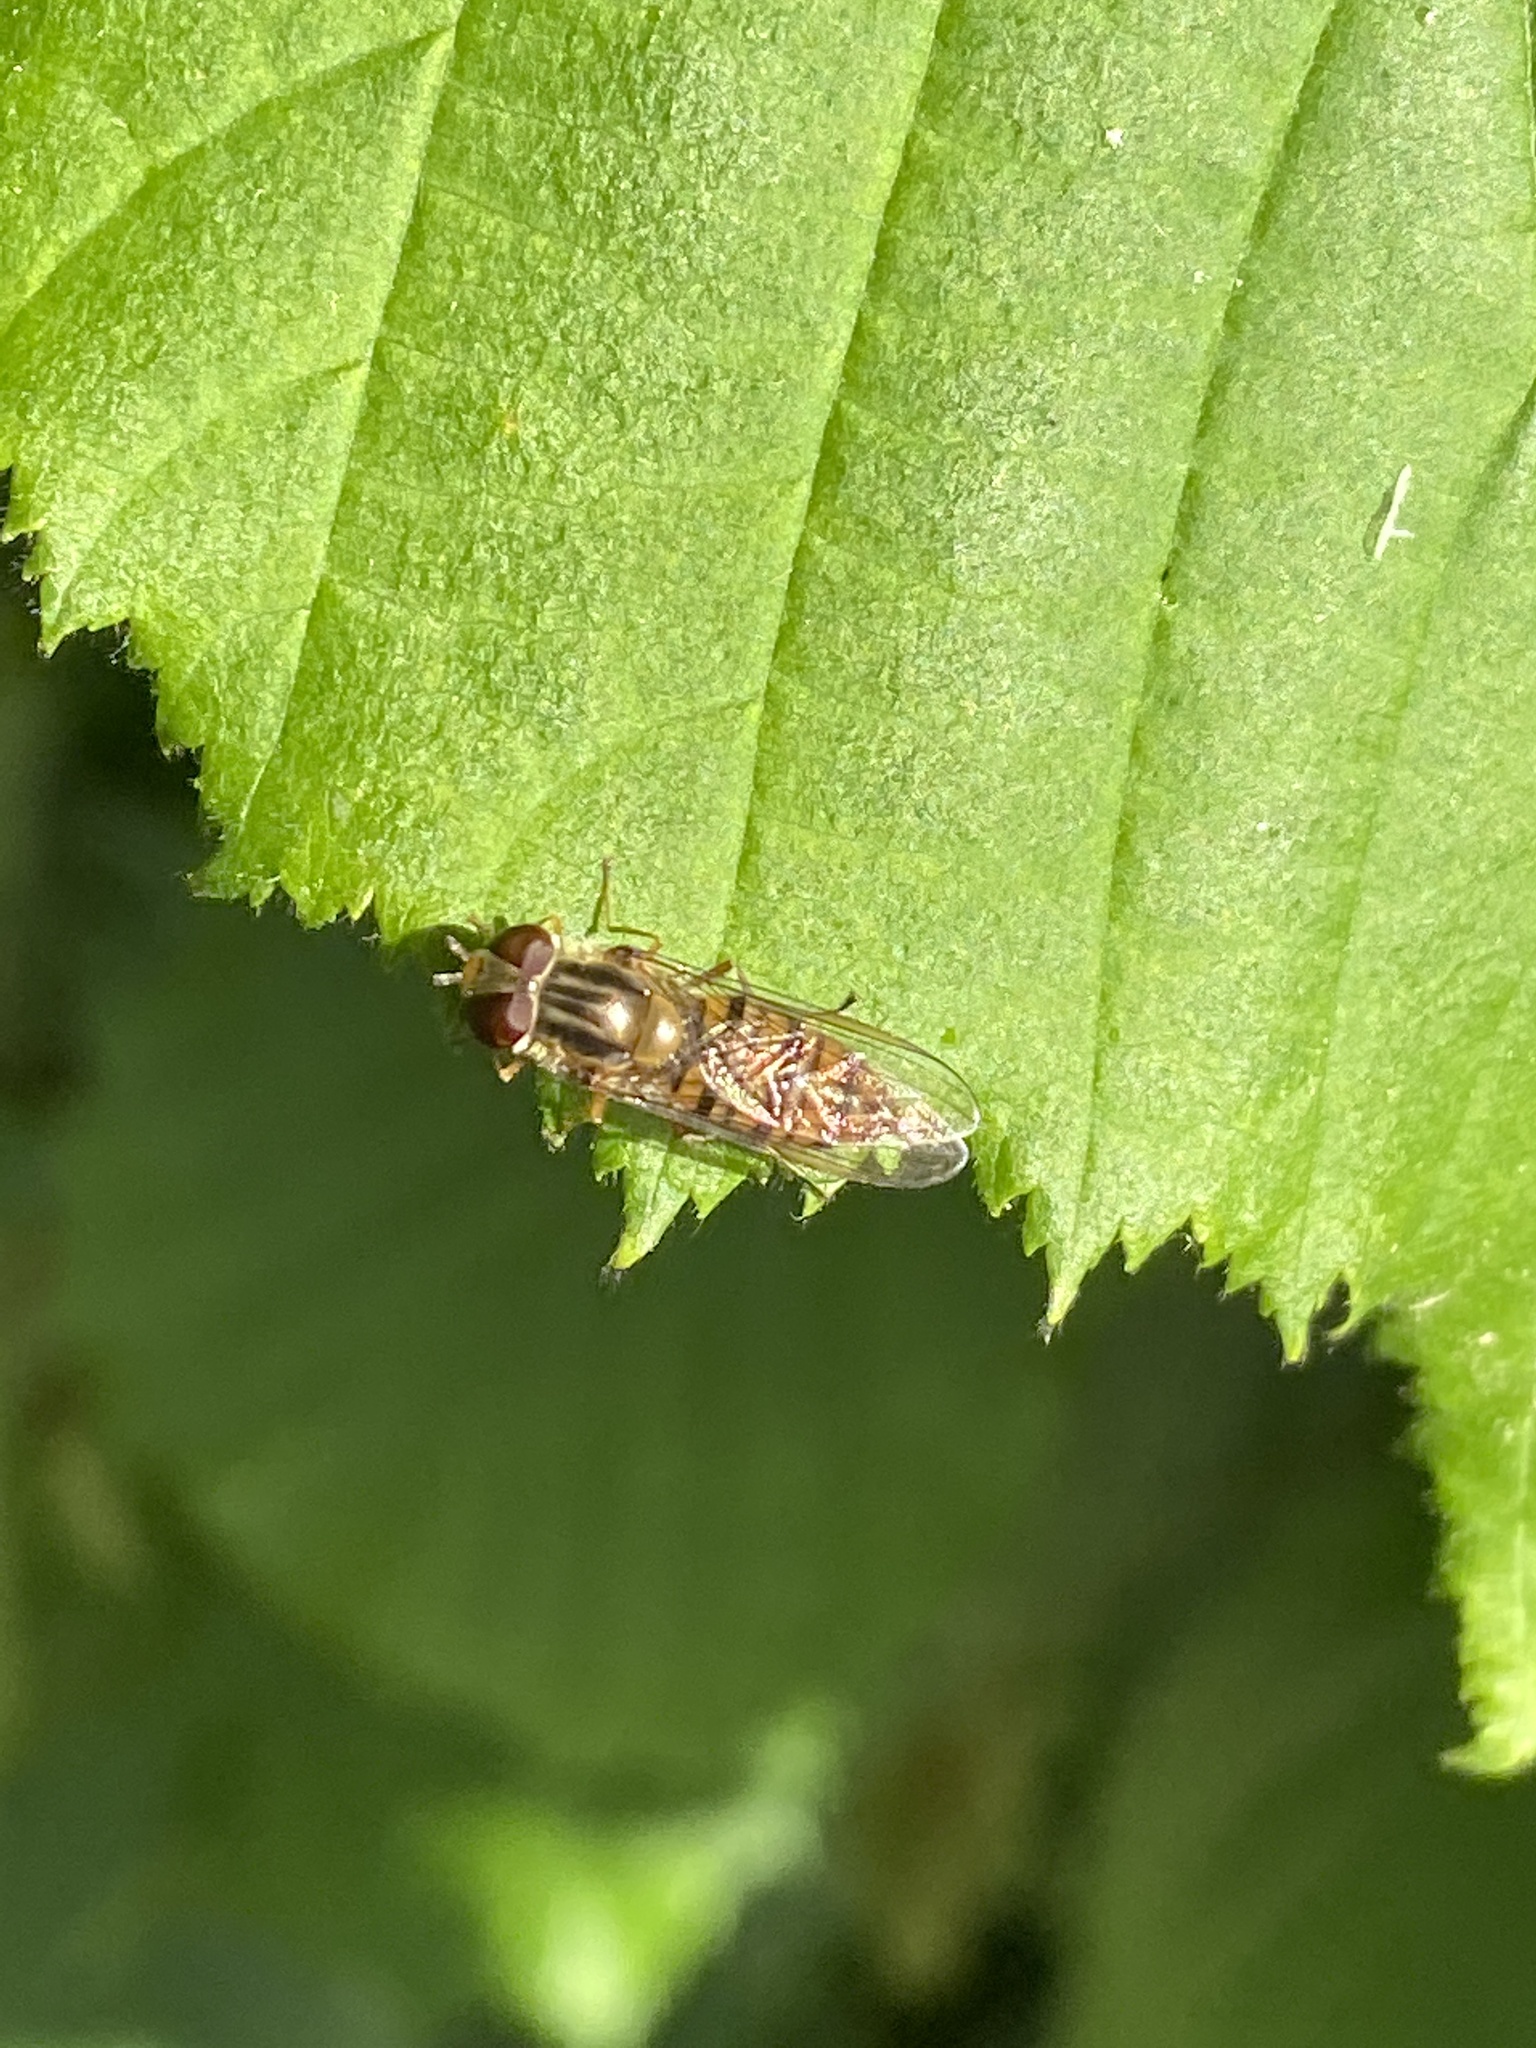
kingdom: Animalia
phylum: Arthropoda
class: Insecta
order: Diptera
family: Syrphidae
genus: Episyrphus
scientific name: Episyrphus balteatus
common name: Marmalade hoverfly
